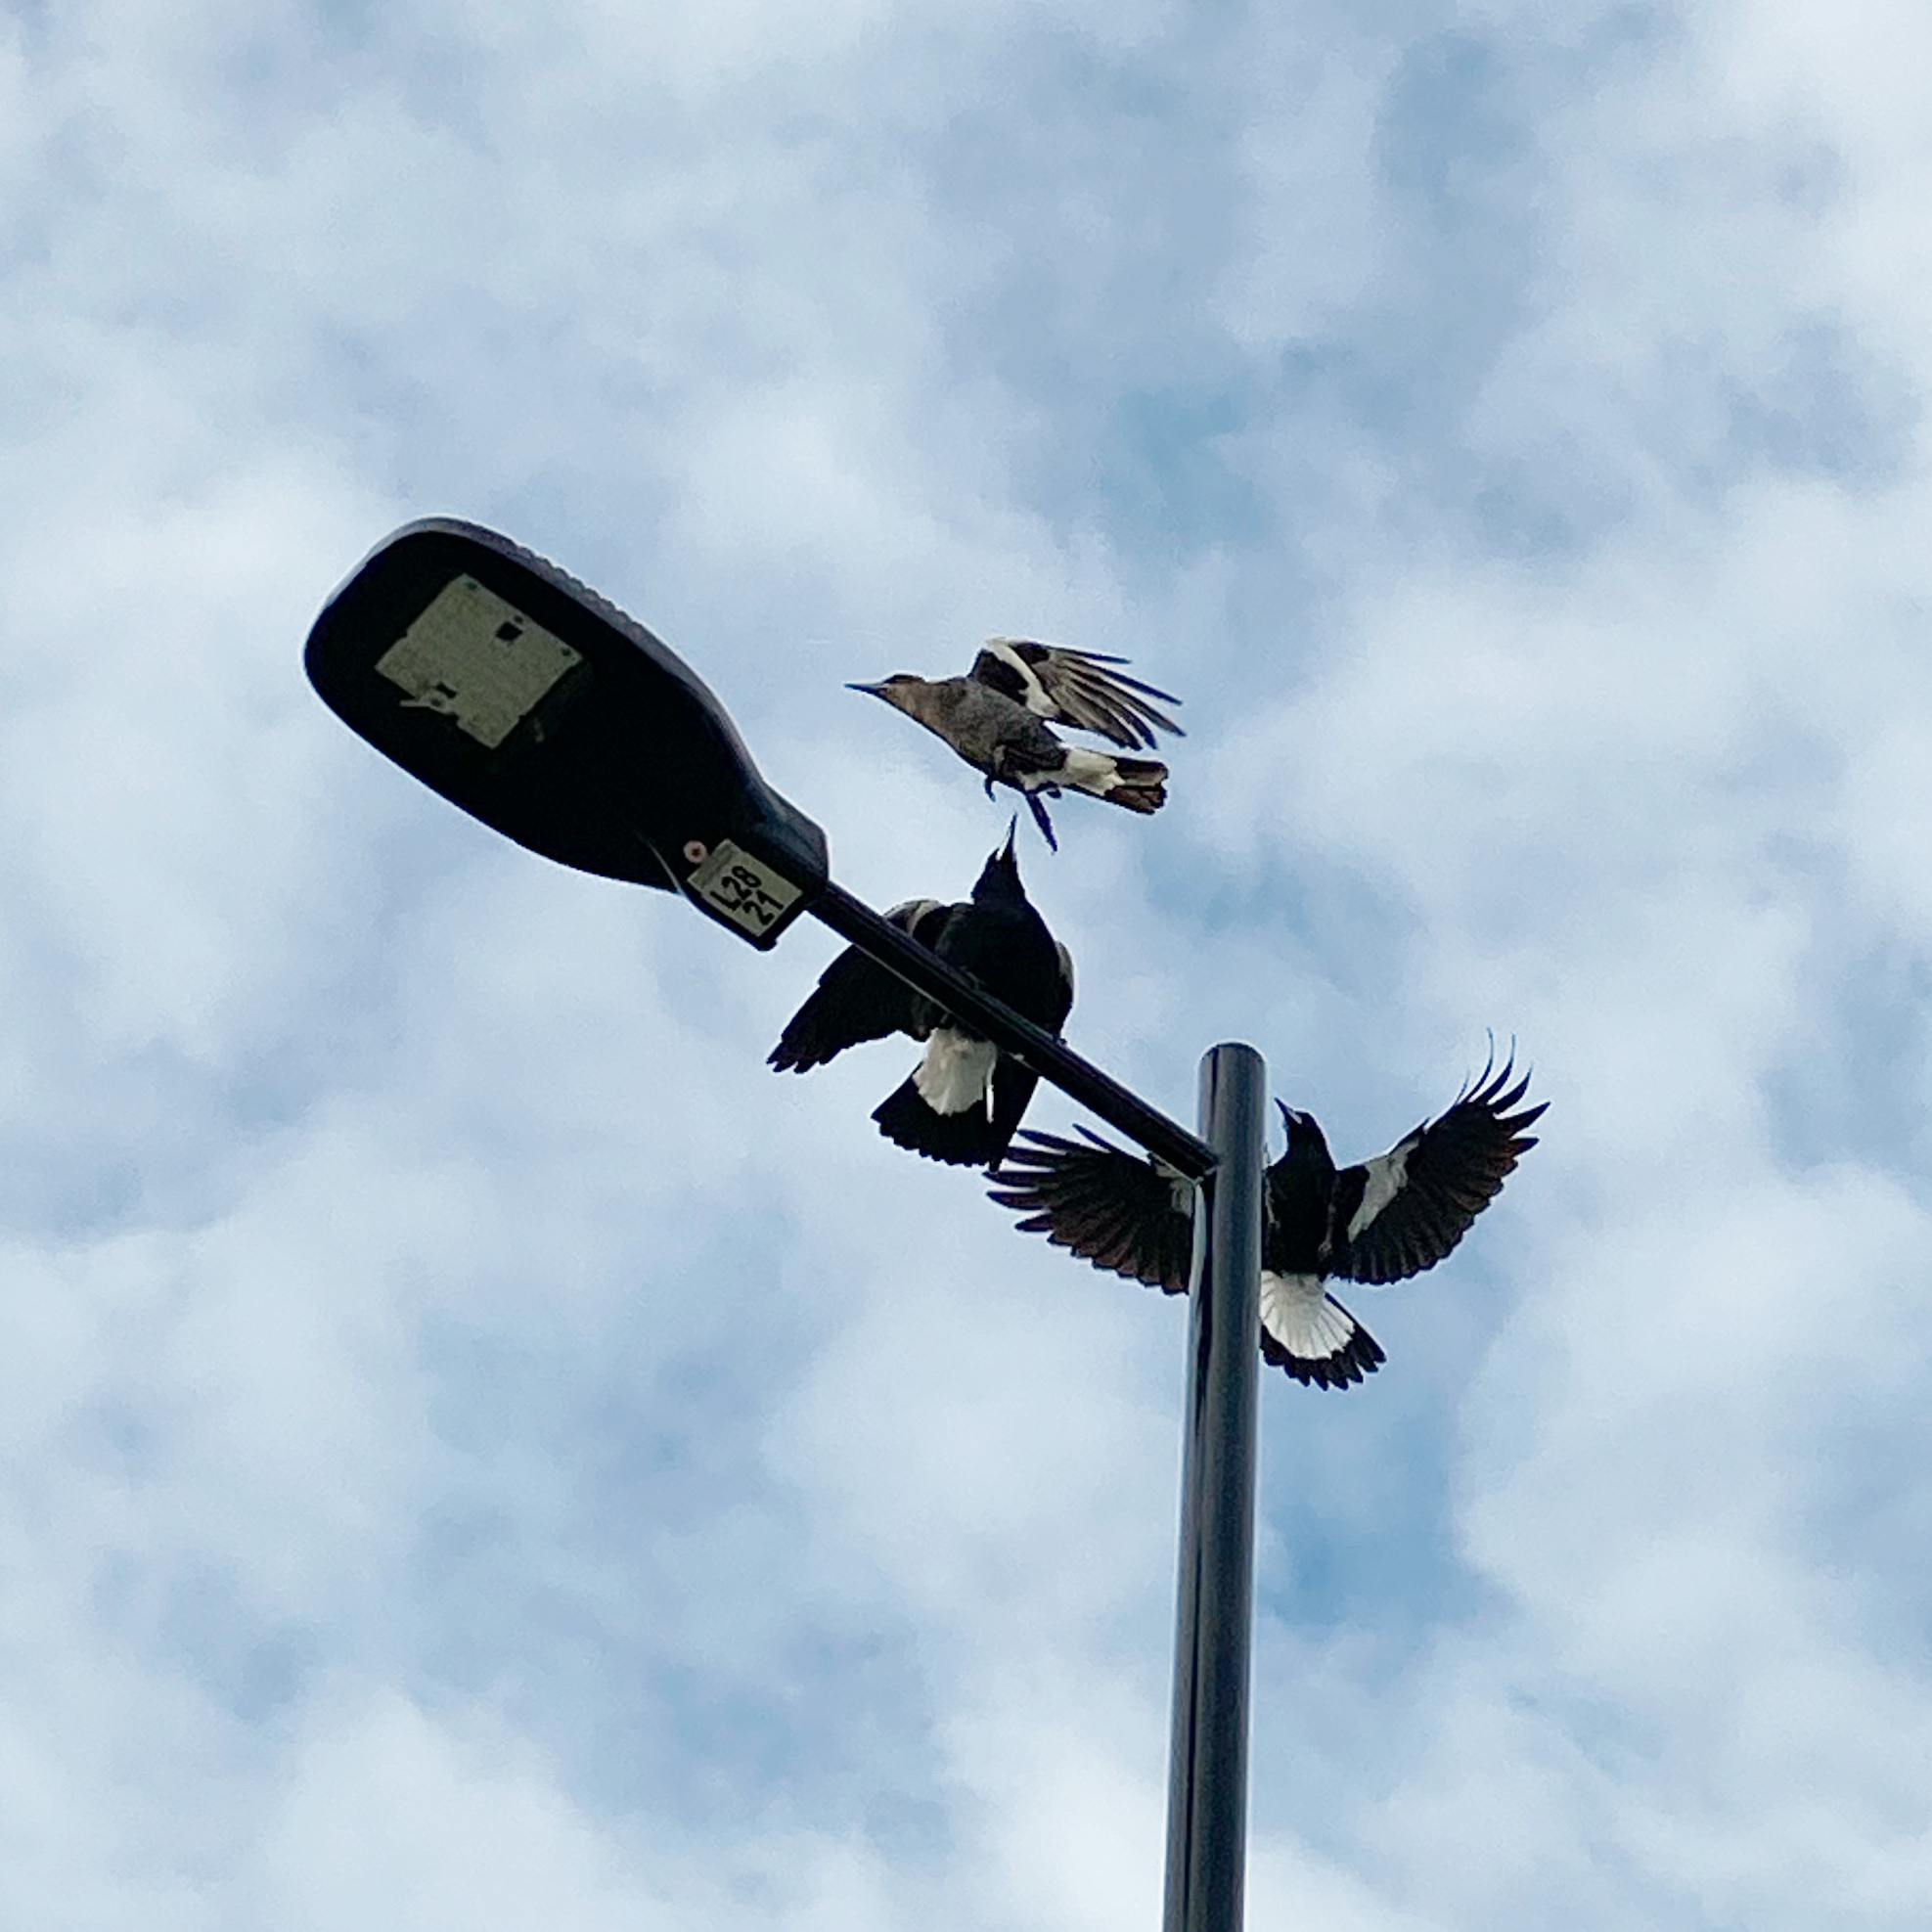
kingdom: Animalia
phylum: Chordata
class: Aves
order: Passeriformes
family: Cracticidae
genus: Gymnorhina
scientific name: Gymnorhina tibicen
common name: Australian magpie
